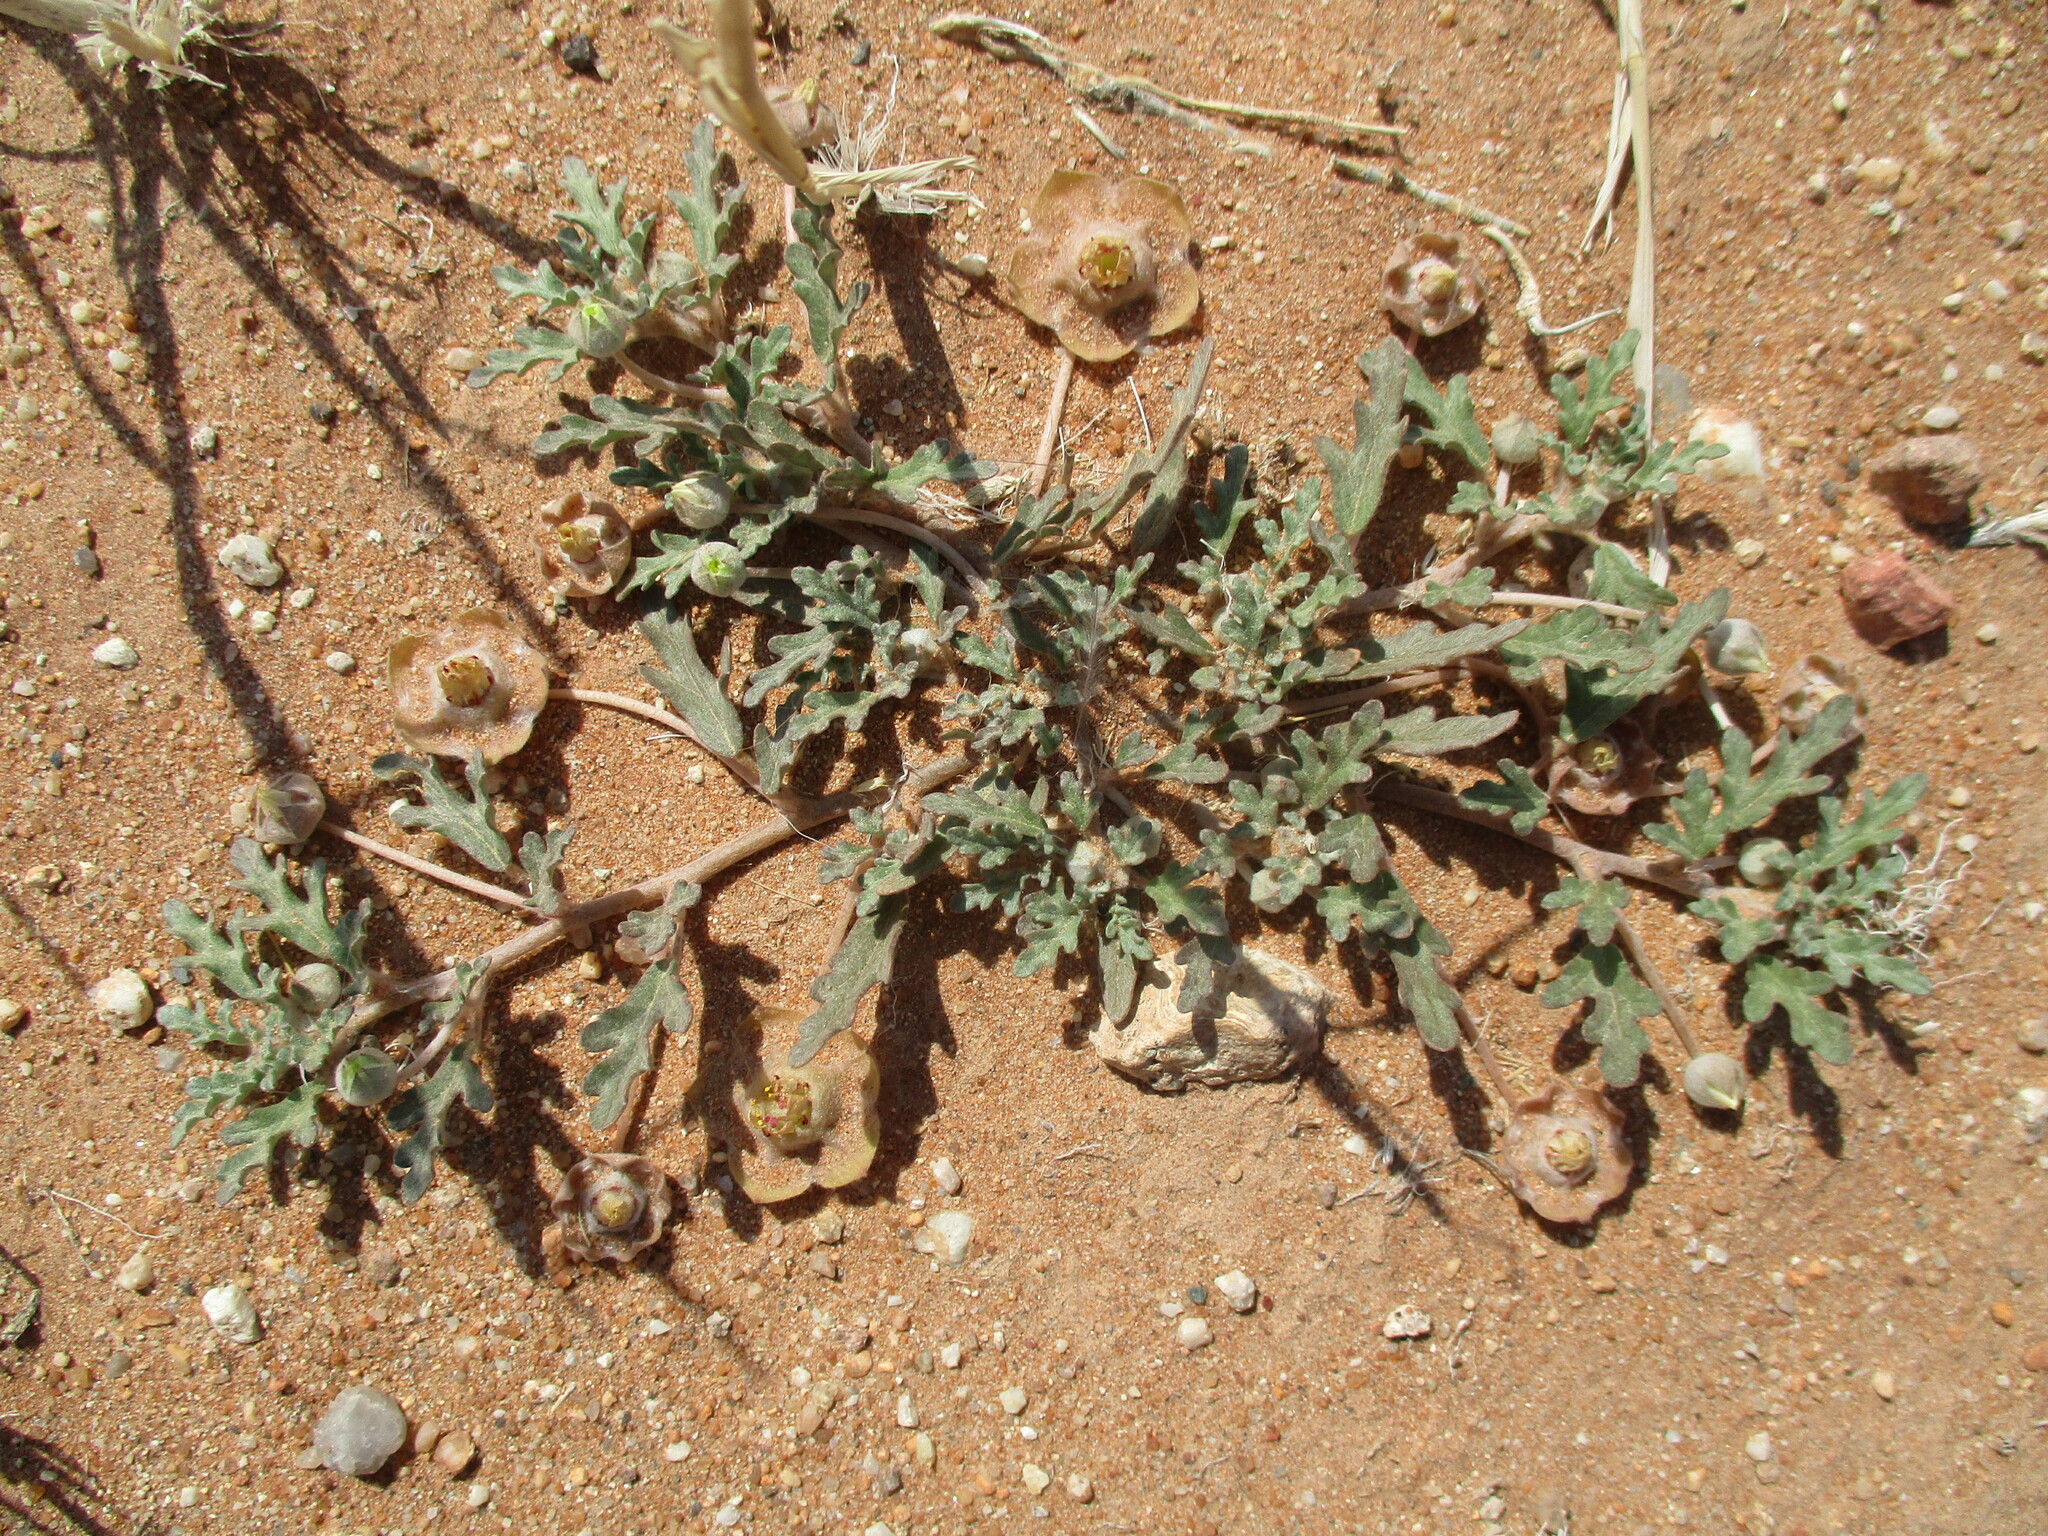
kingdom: Plantae
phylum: Tracheophyta
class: Magnoliopsida
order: Malvales
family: Neuradaceae
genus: Grielum
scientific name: Grielum sinuatum
